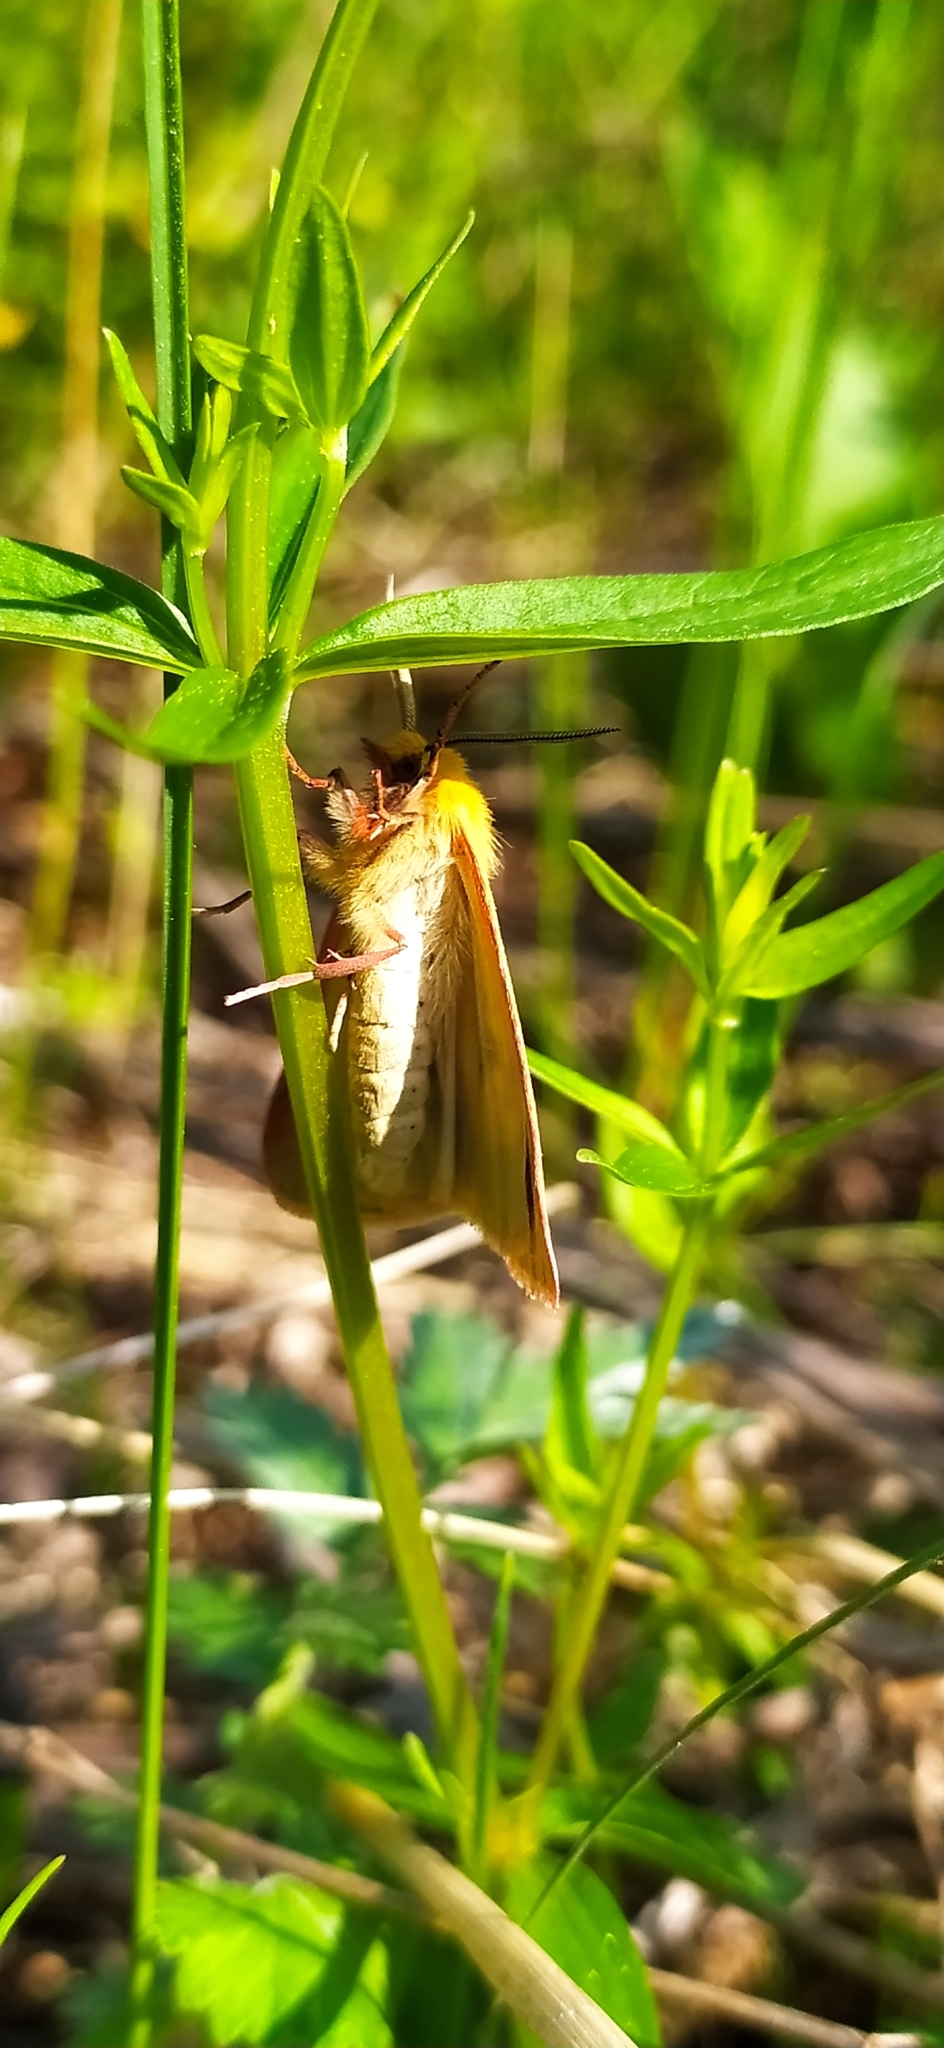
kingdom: Animalia
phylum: Arthropoda
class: Insecta
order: Lepidoptera
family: Erebidae
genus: Diacrisia
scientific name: Diacrisia sannio
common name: Clouded buff
